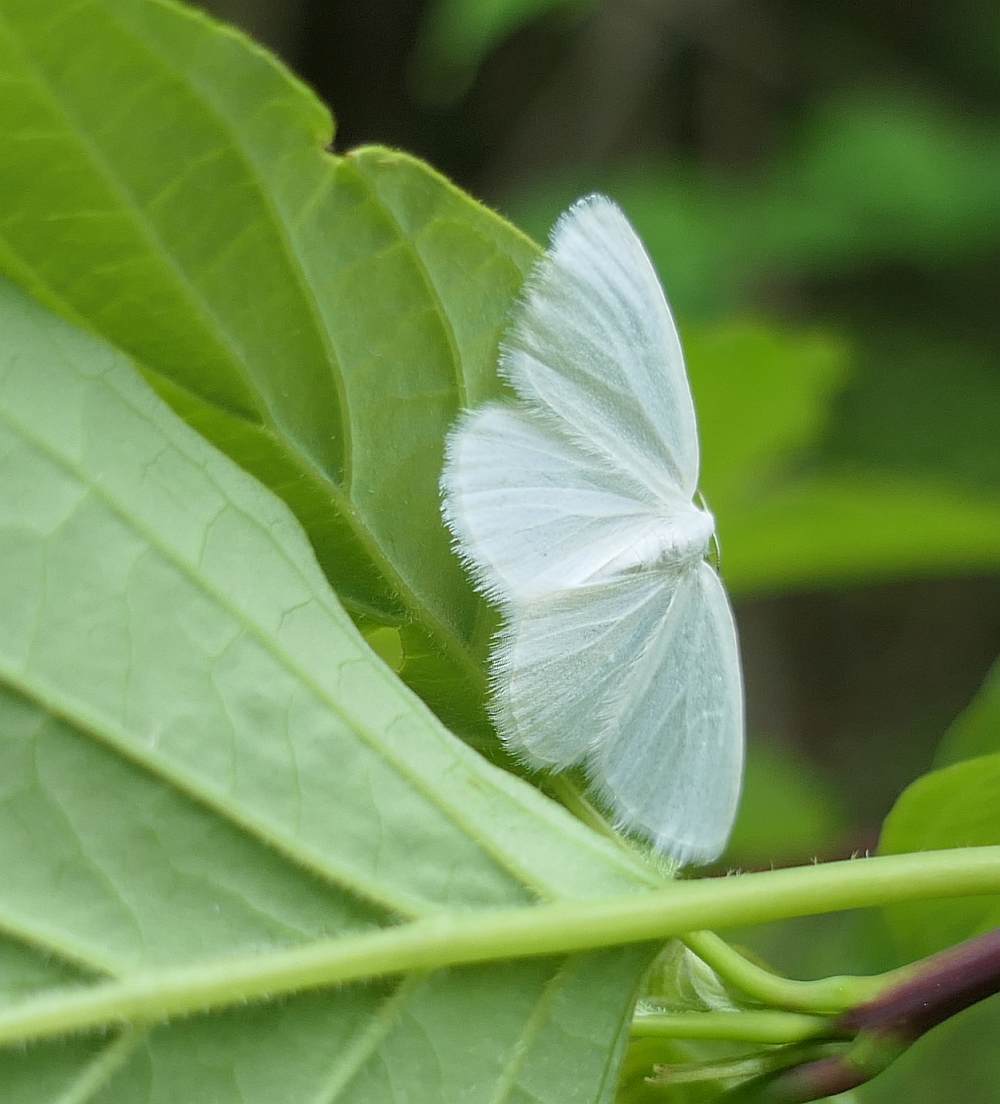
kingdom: Animalia
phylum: Arthropoda
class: Insecta
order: Lepidoptera
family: Geometridae
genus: Lomographa
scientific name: Lomographa vestaliata
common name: White spring moth
